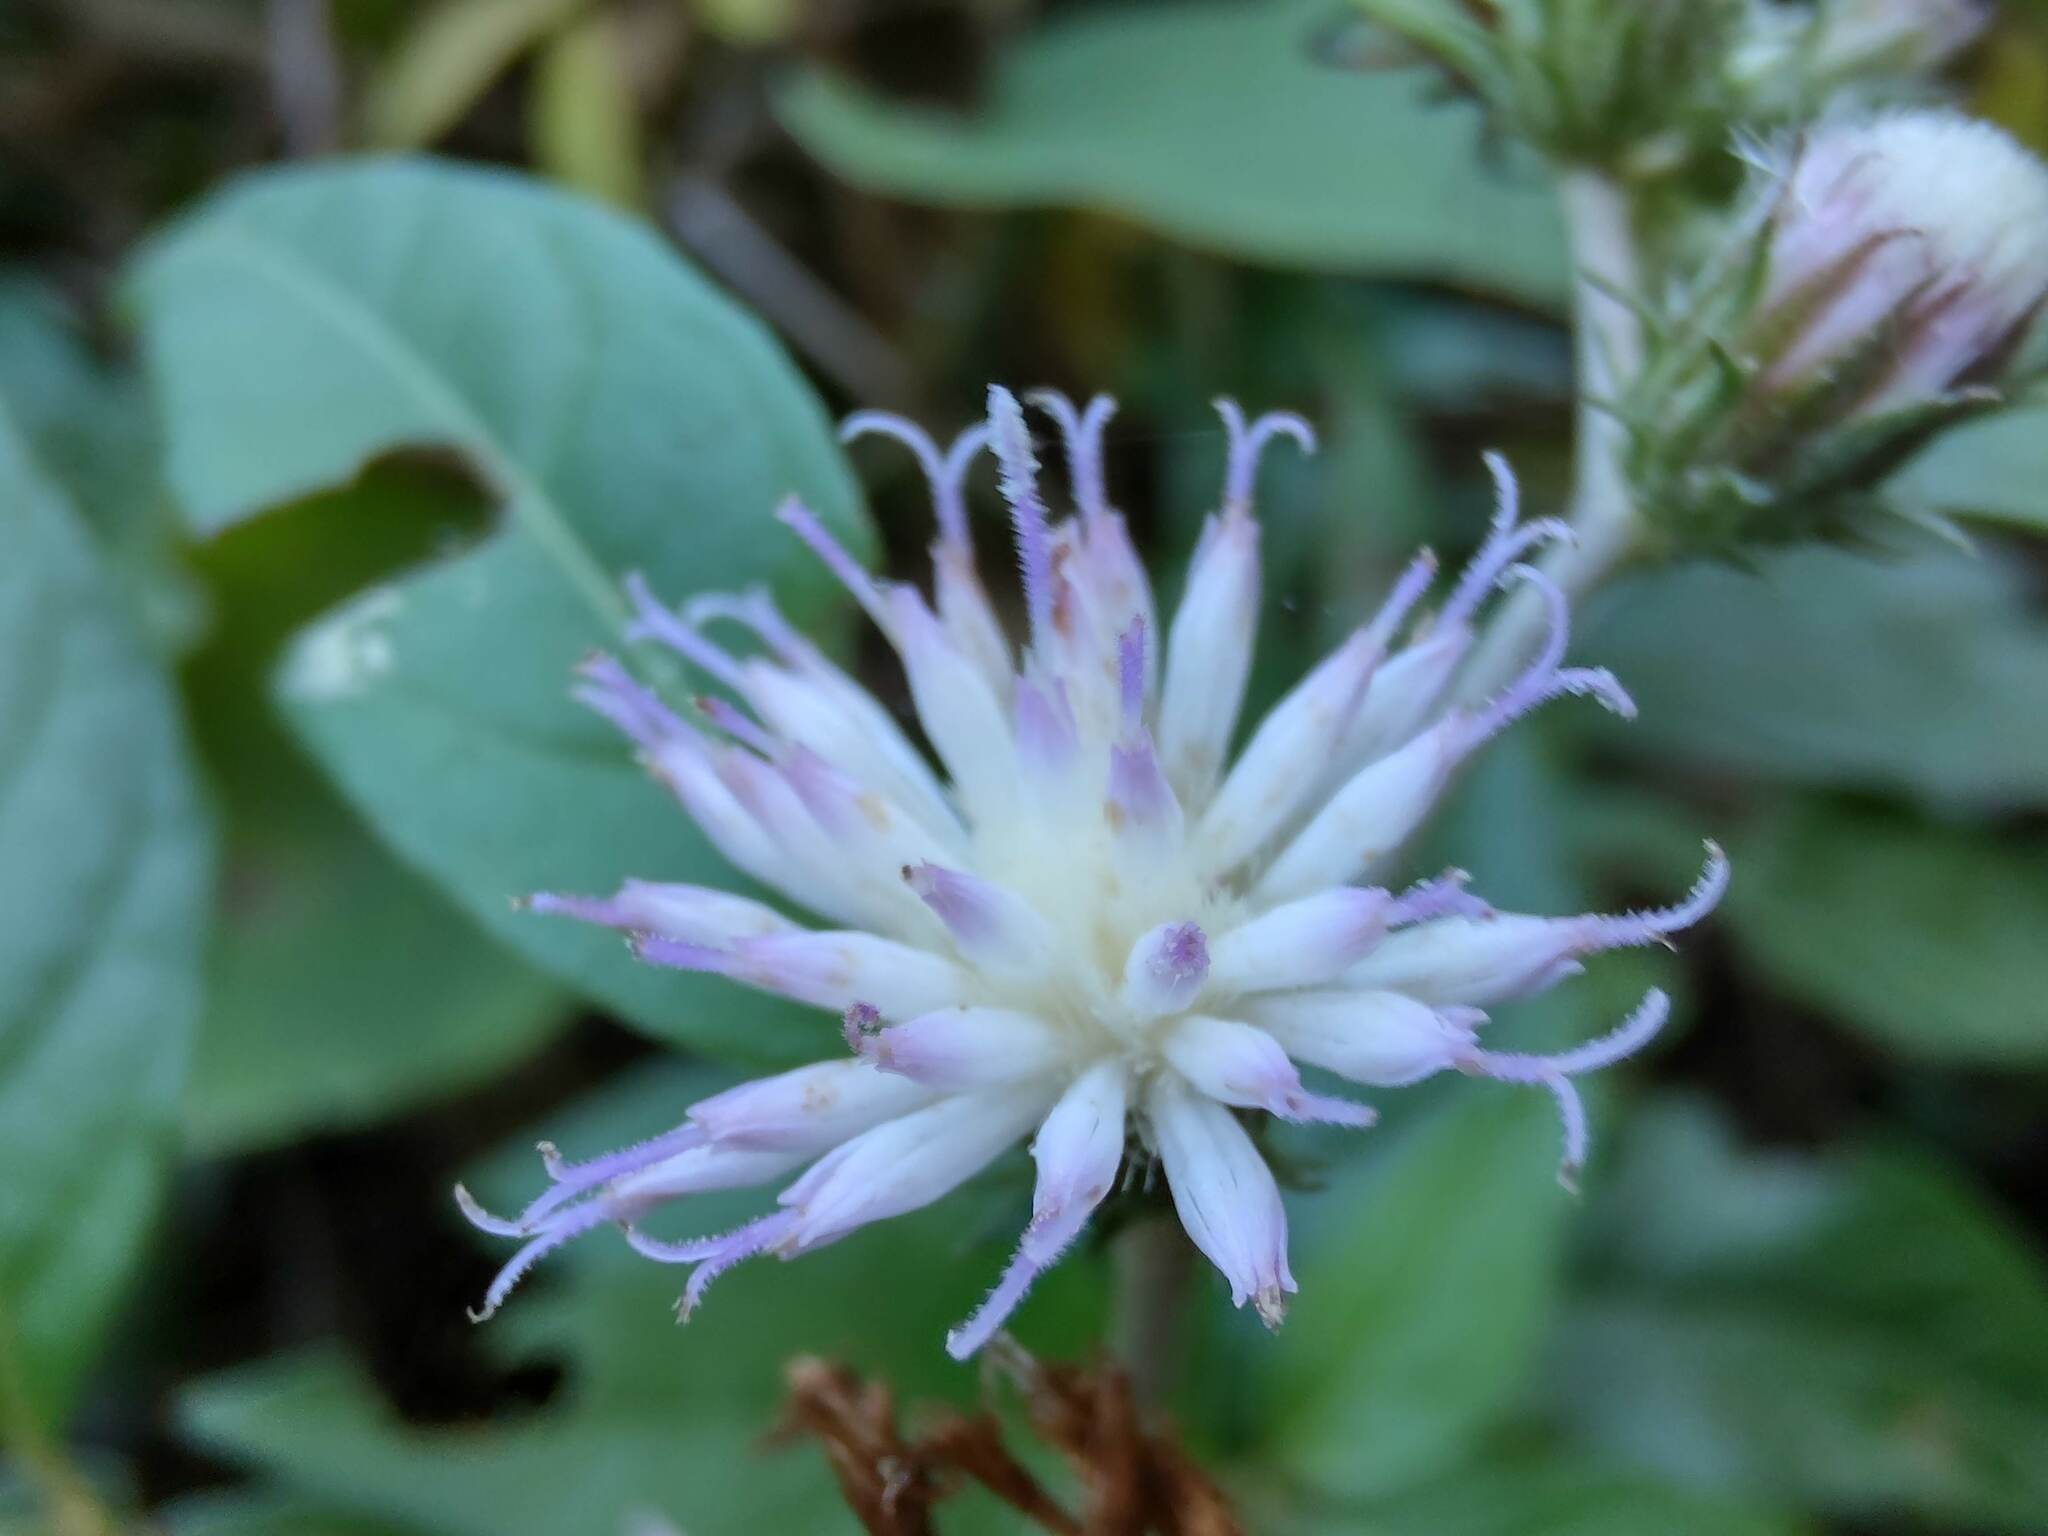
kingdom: Plantae
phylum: Tracheophyta
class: Magnoliopsida
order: Asterales
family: Asteraceae
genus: Cyrtocymura
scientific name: Cyrtocymura scorpioides
